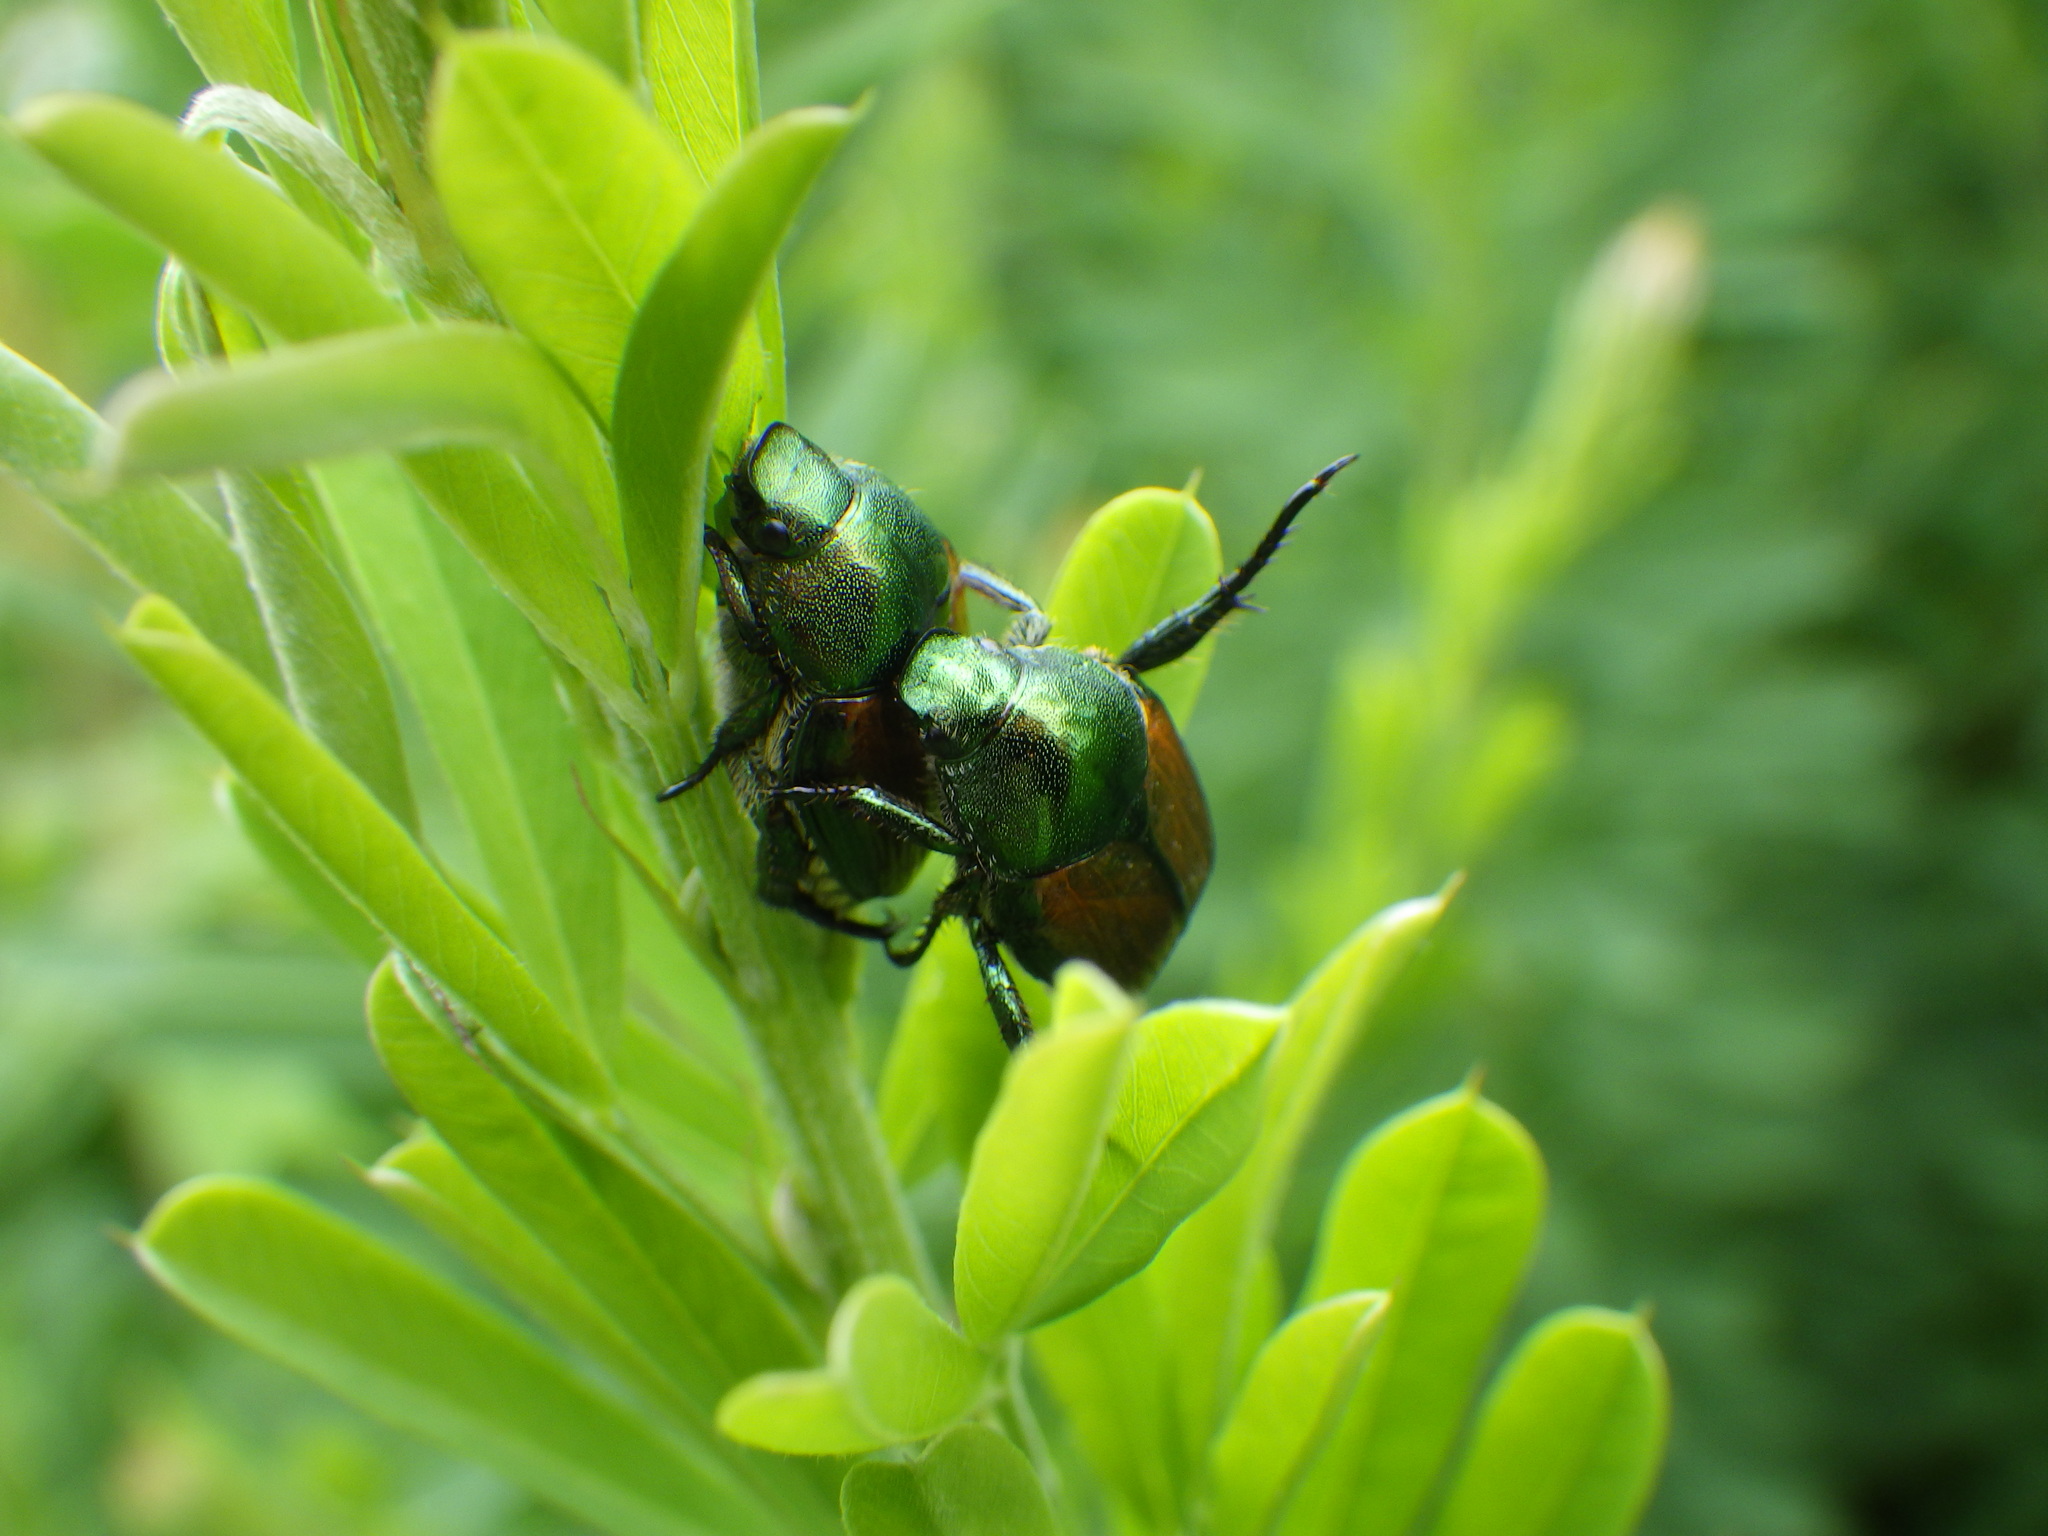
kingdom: Animalia
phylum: Arthropoda
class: Insecta
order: Coleoptera
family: Scarabaeidae
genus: Popillia
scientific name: Popillia japonica
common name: Japanese beetle
